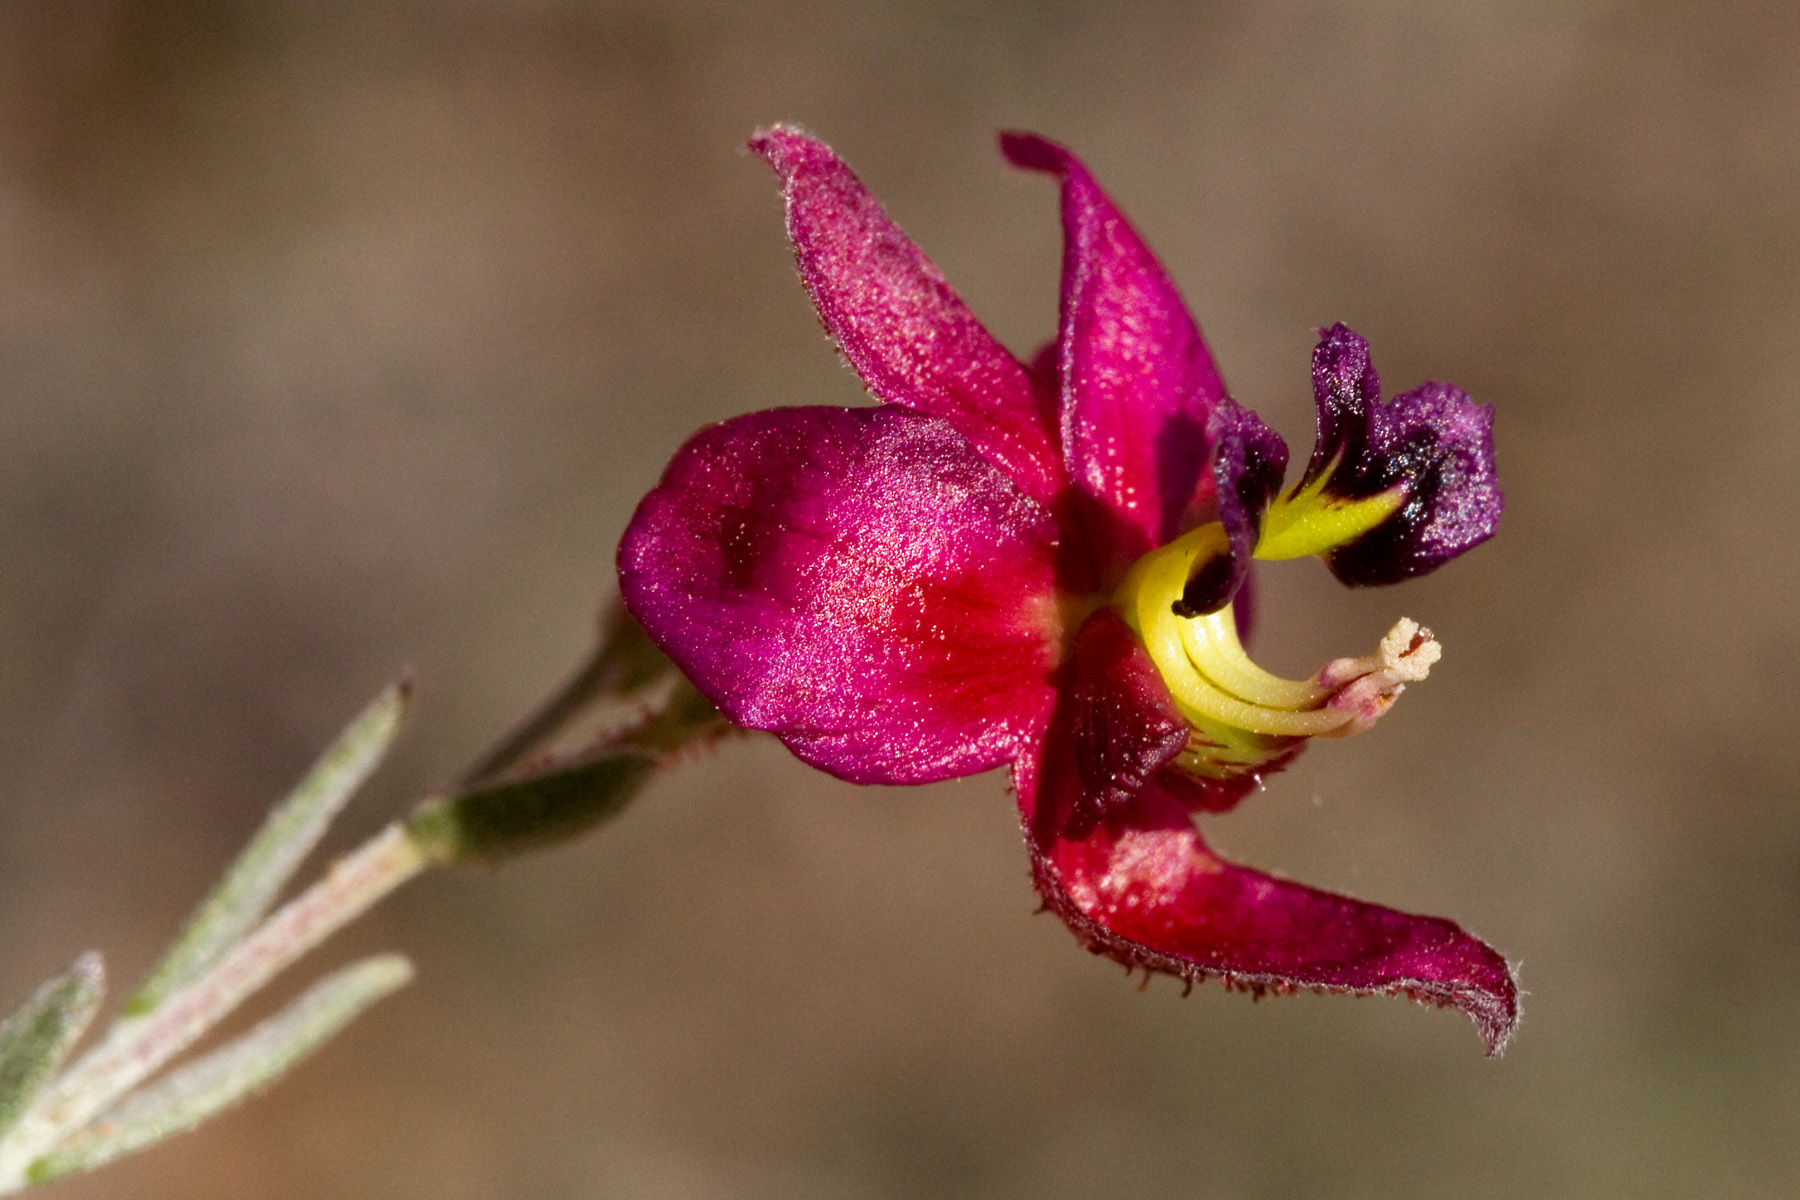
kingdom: Plantae
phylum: Tracheophyta
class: Magnoliopsida
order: Zygophyllales
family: Krameriaceae
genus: Krameria
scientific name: Krameria erecta
